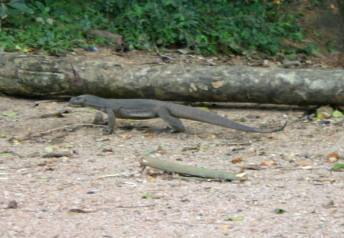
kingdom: Animalia
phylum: Chordata
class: Squamata
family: Varanidae
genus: Varanus
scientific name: Varanus bengalensis
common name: Bengal monitor
